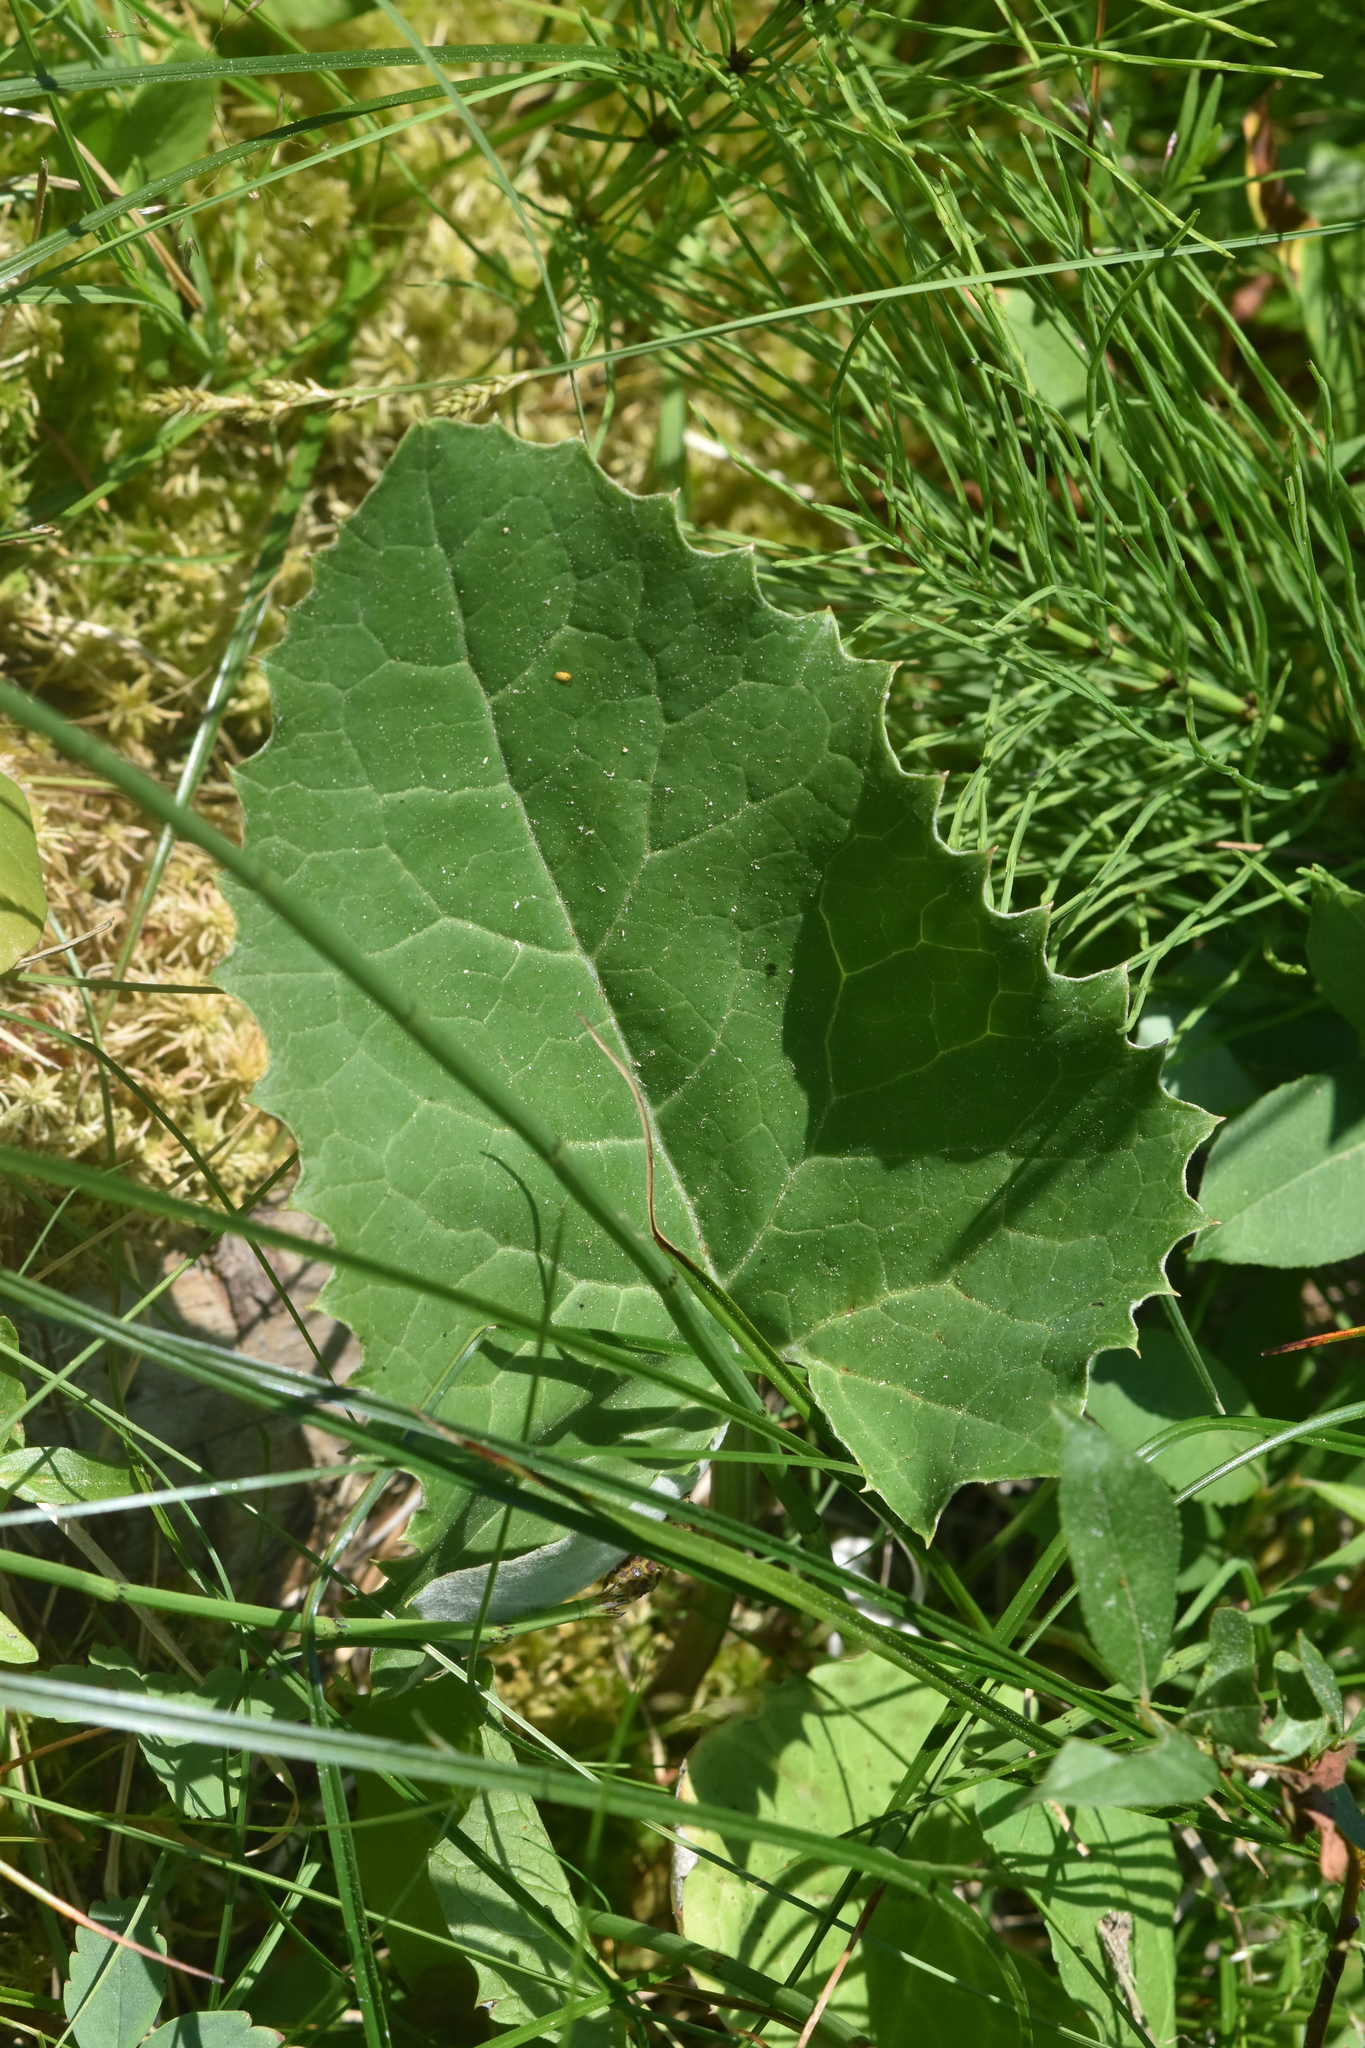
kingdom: Plantae
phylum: Tracheophyta
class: Magnoliopsida
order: Asterales
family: Asteraceae
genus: Petasites
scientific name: Petasites frigidus
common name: Arctic butterbur
